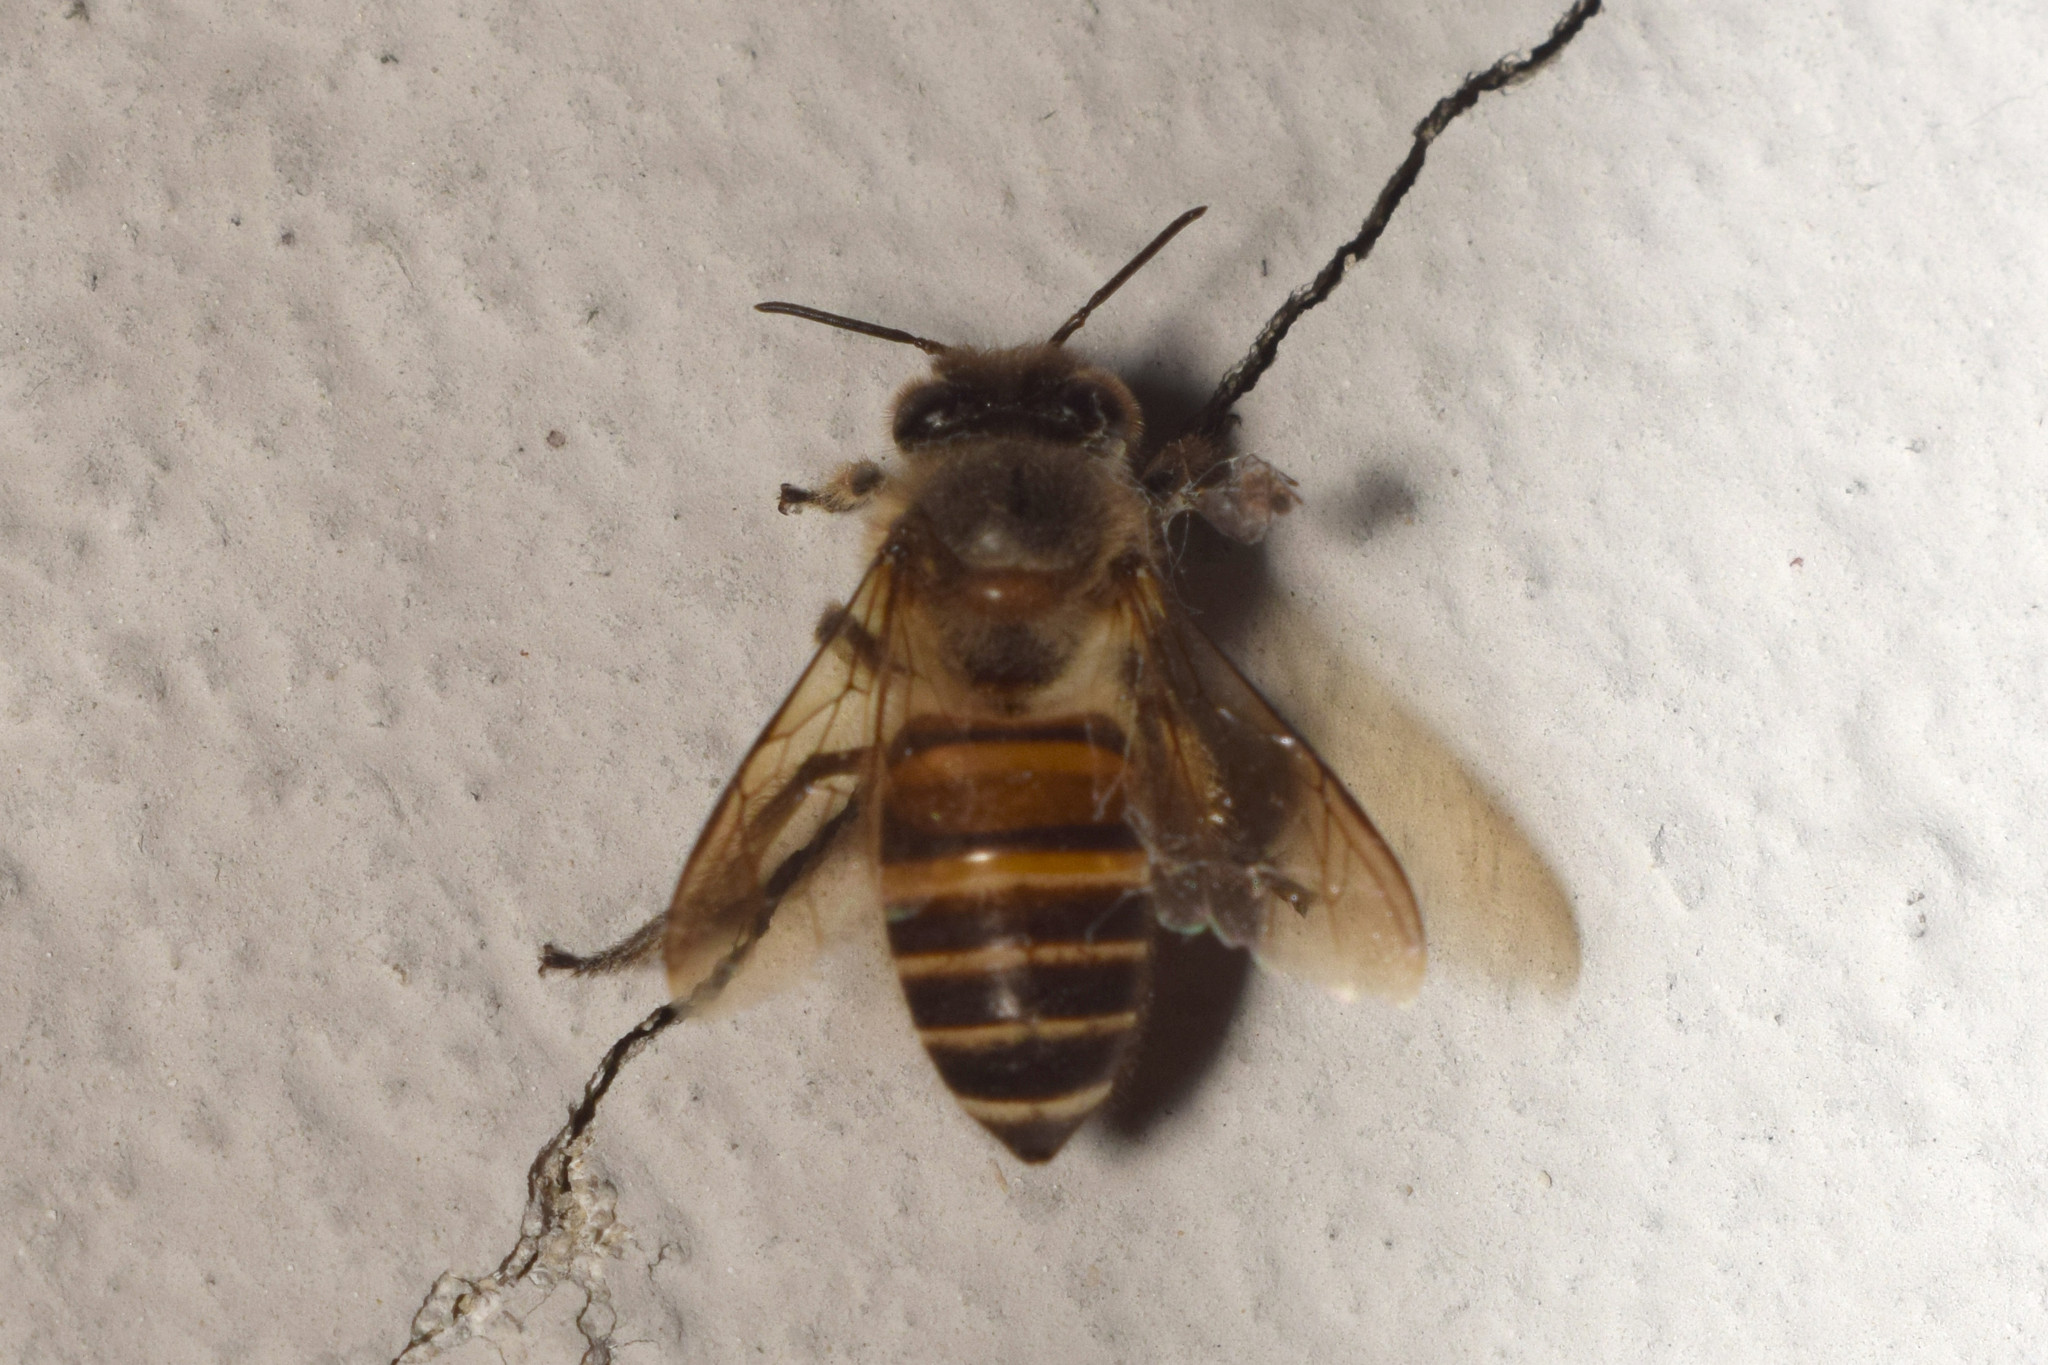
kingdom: Animalia
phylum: Arthropoda
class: Insecta
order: Hymenoptera
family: Apidae
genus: Apis
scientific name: Apis cerana
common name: Honey bee
